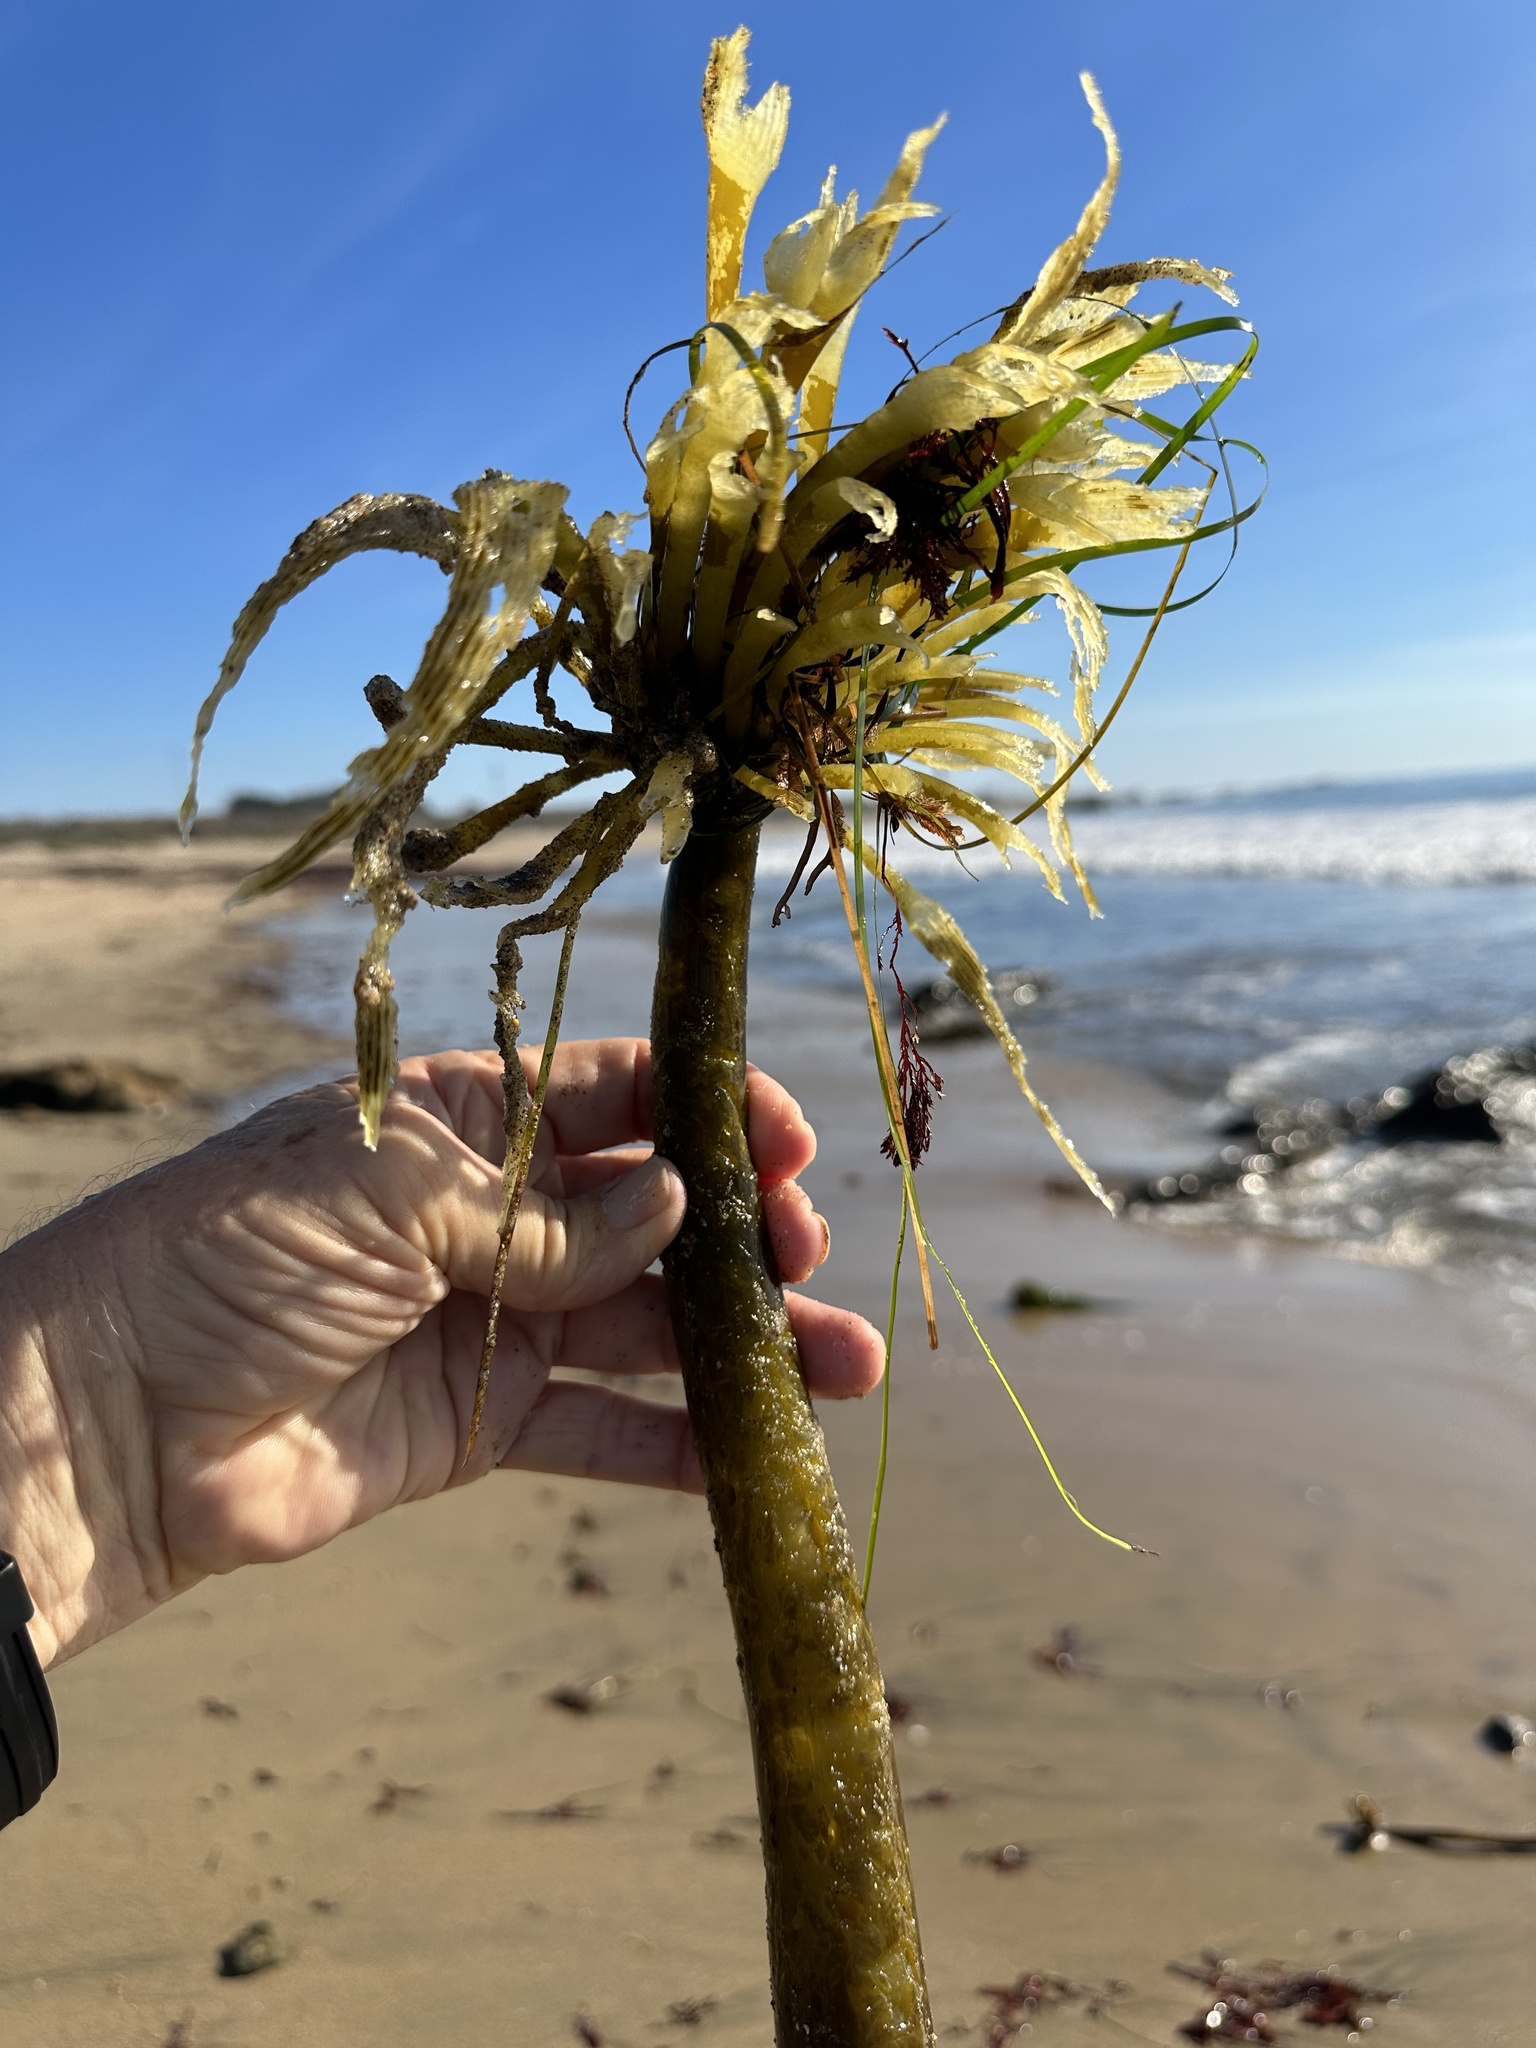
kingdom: Chromista
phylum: Ochrophyta
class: Phaeophyceae
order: Laminariales
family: Laminariaceae
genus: Postelsia
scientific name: Postelsia palmiformis
